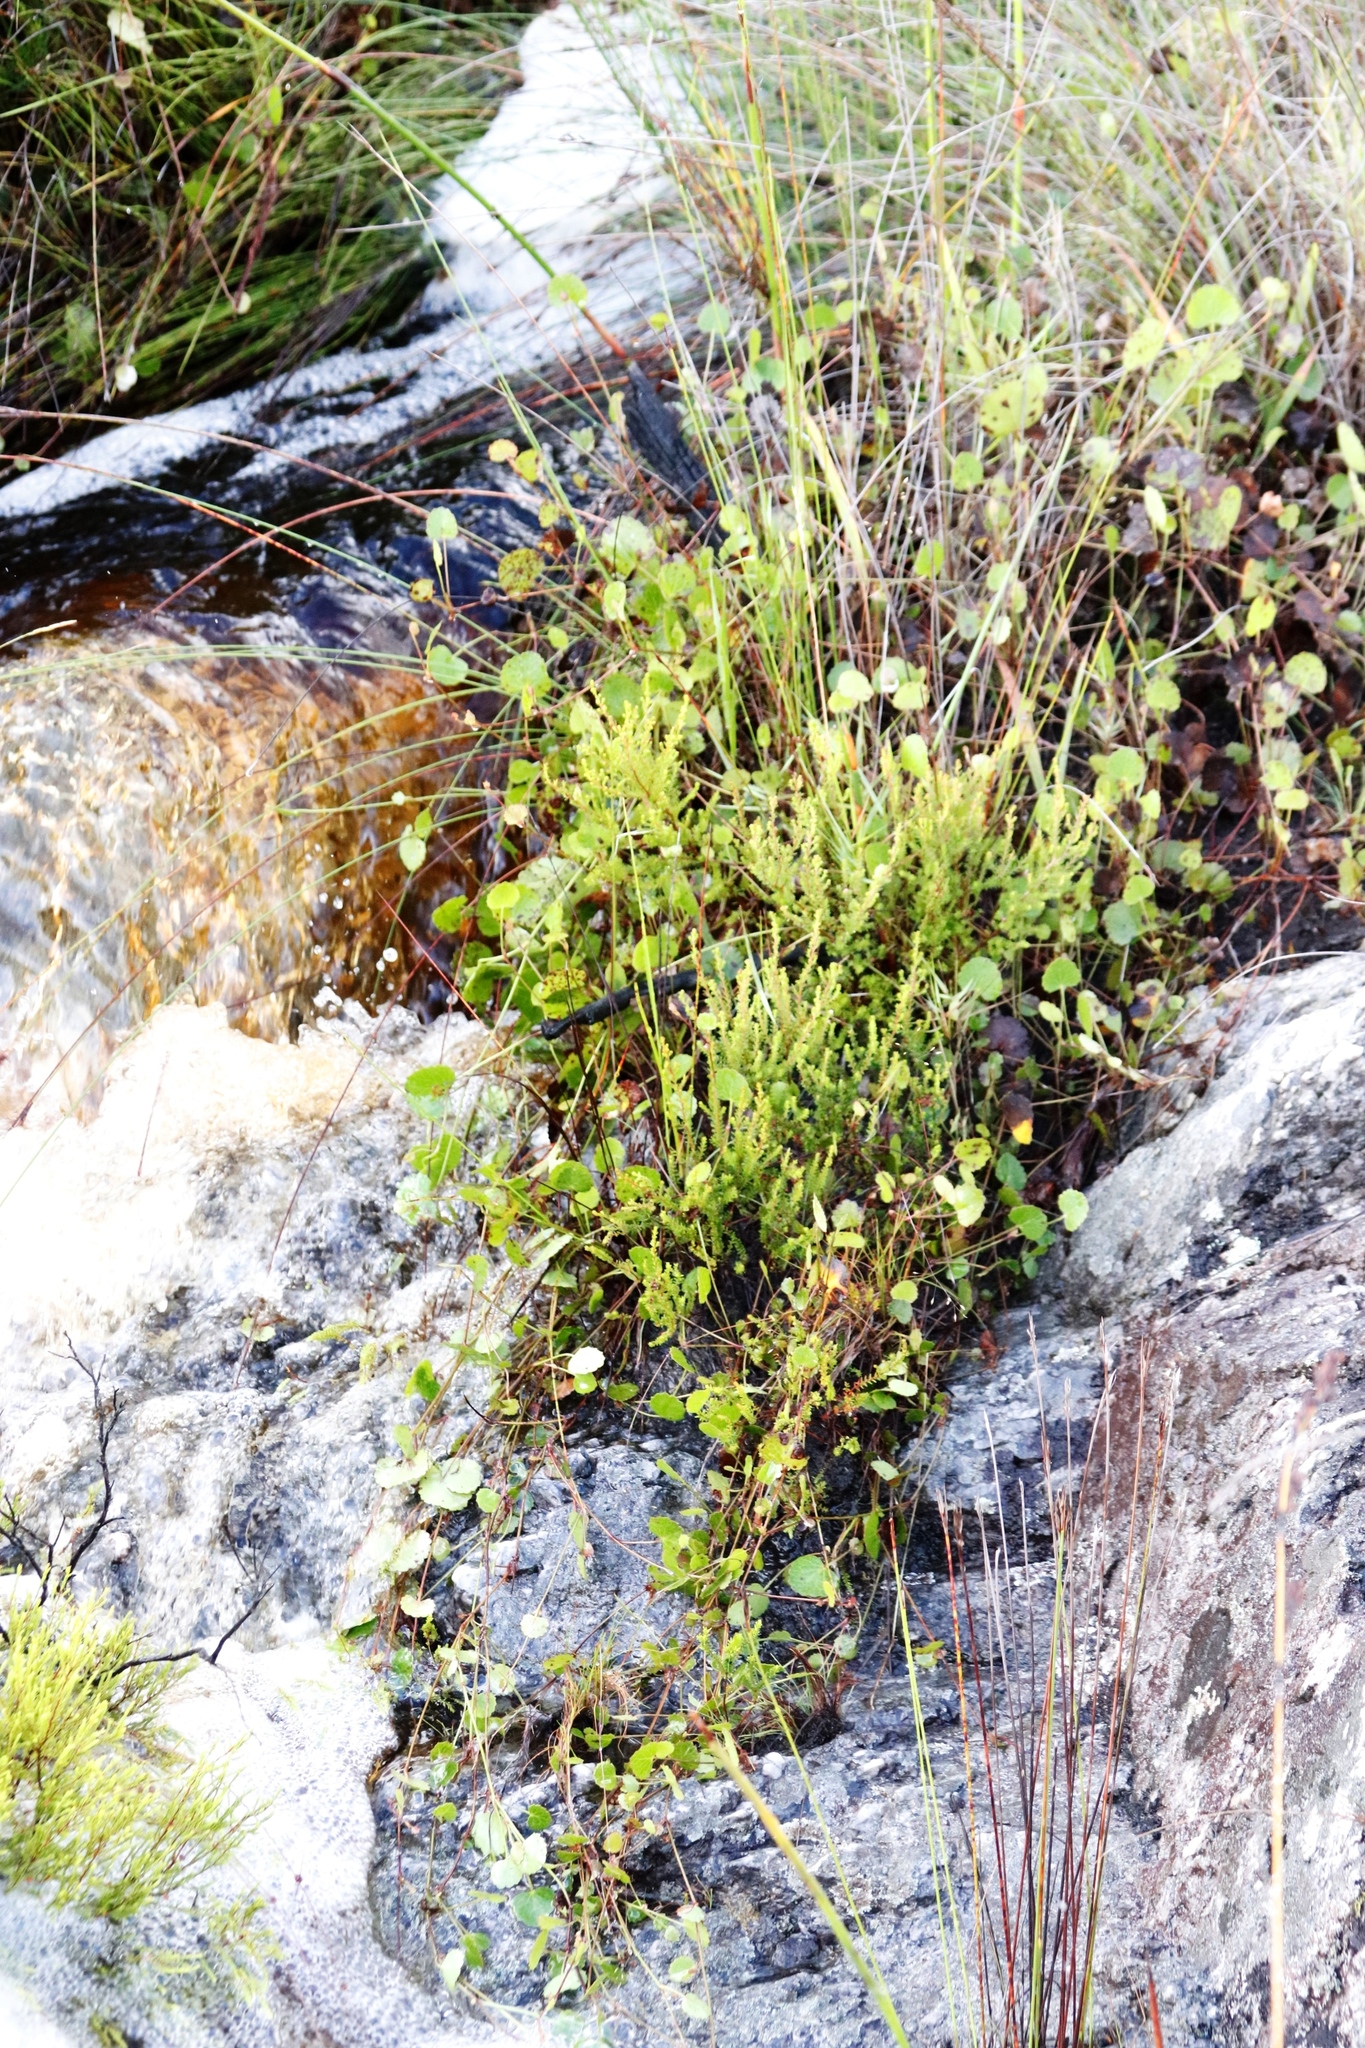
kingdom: Plantae
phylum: Tracheophyta
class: Magnoliopsida
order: Apiales
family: Apiaceae
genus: Centella
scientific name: Centella eriantha
